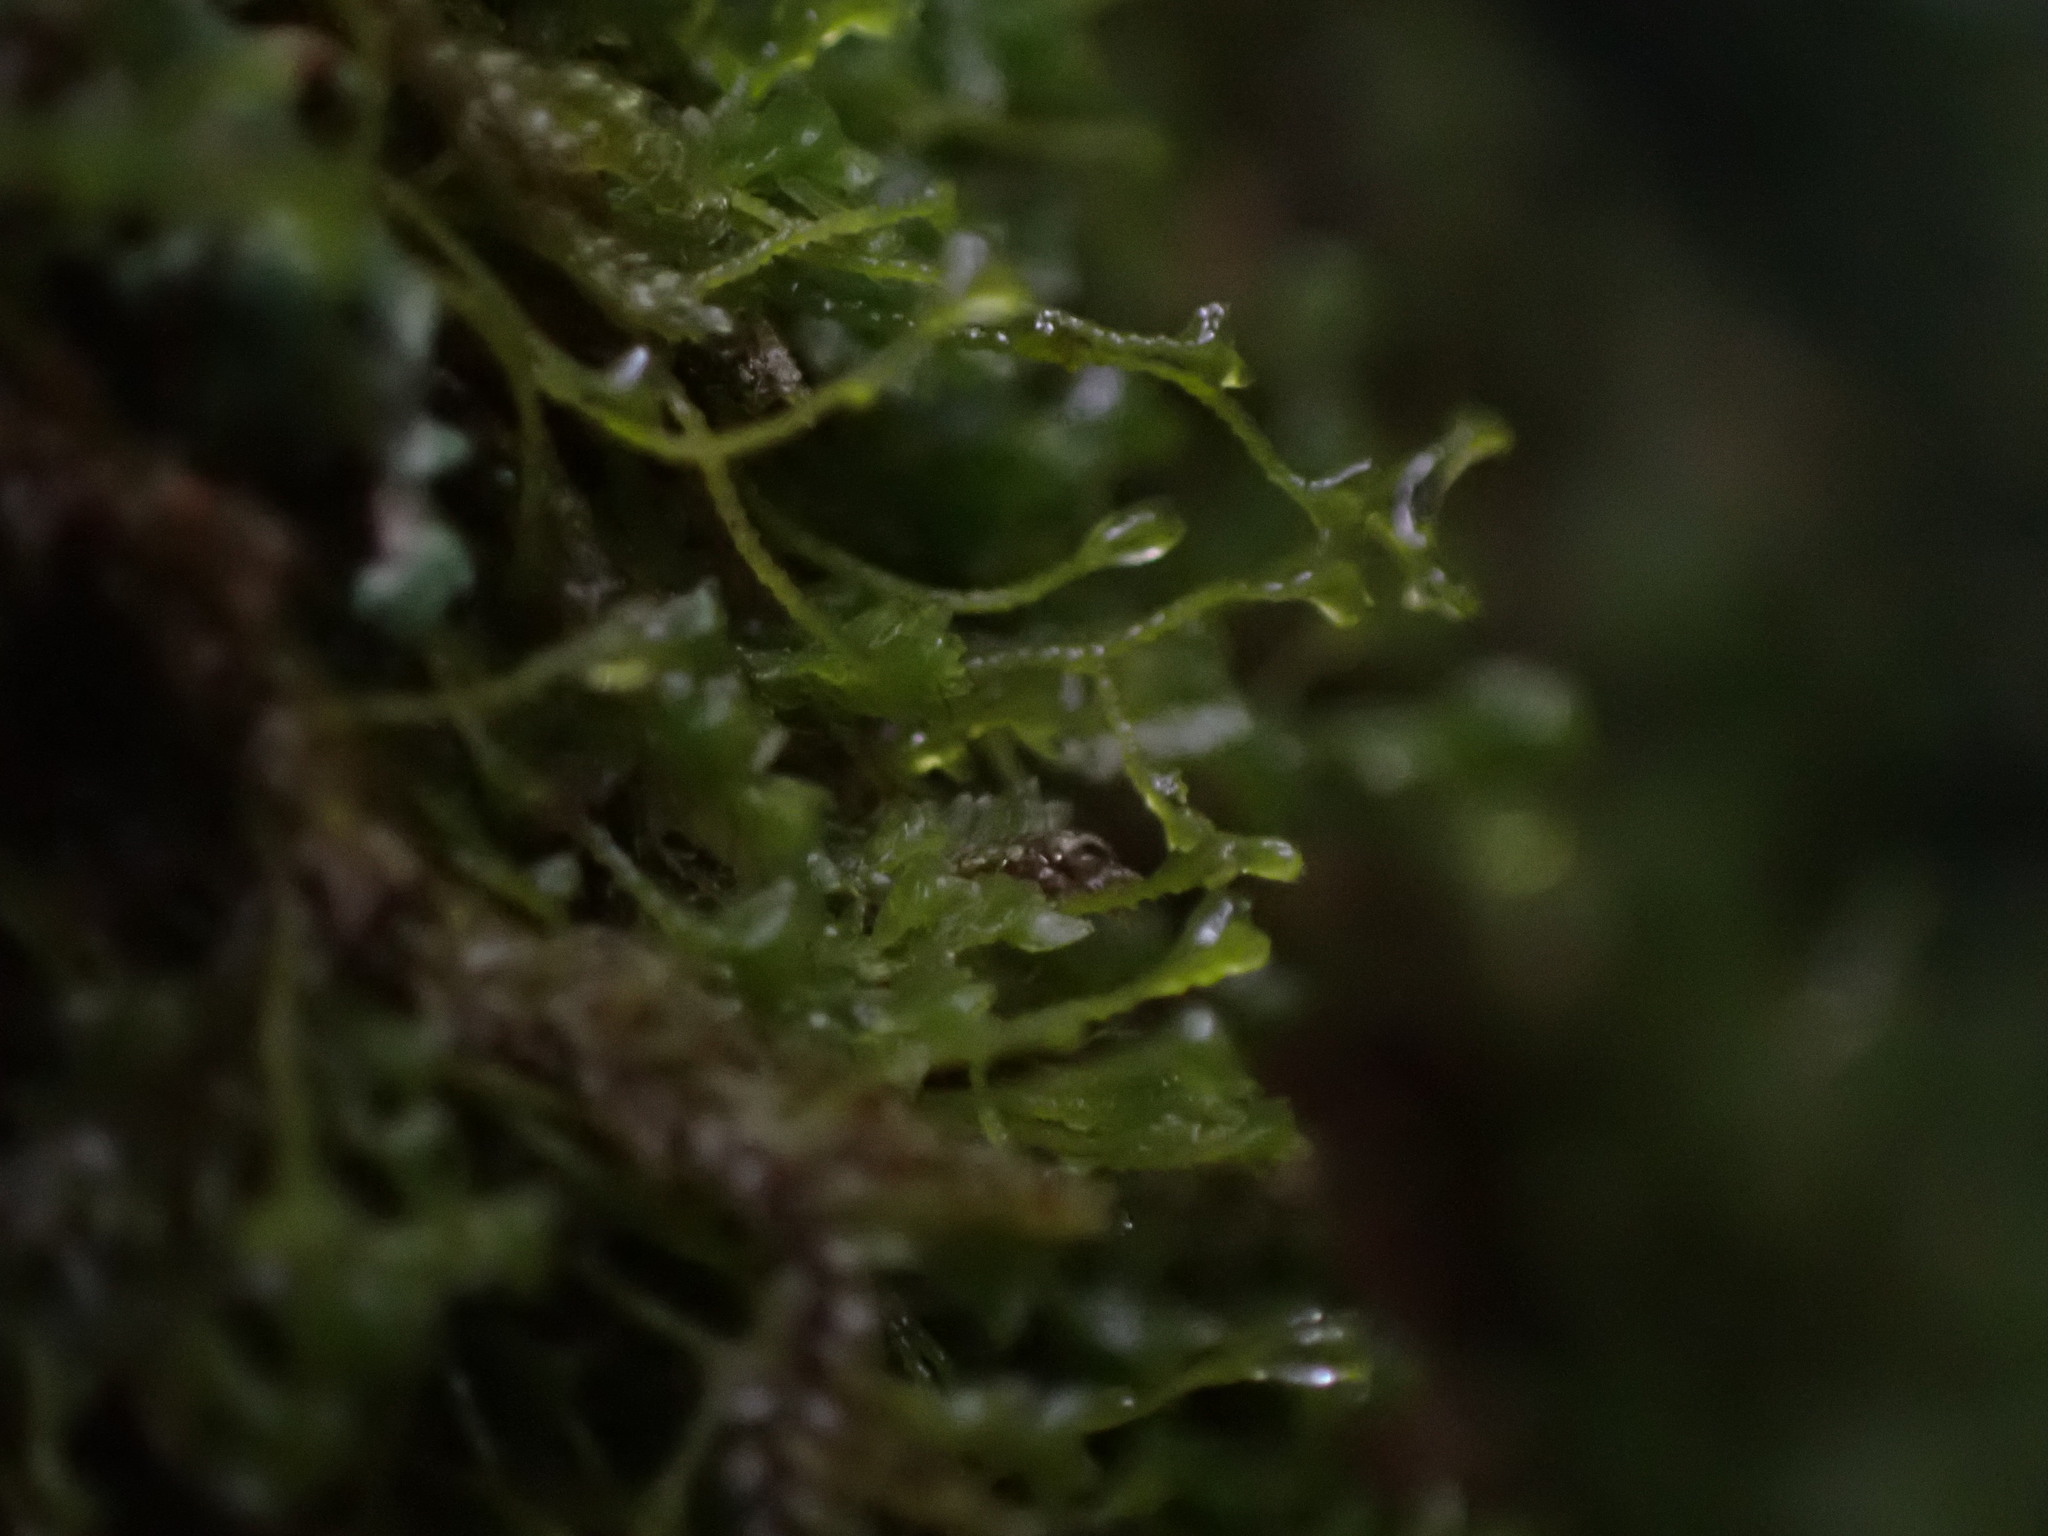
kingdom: Plantae
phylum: Marchantiophyta
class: Jungermanniopsida
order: Jungermanniales
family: Lepidoziaceae
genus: Bazzania
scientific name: Bazzania denudata
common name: Naked whipwort
